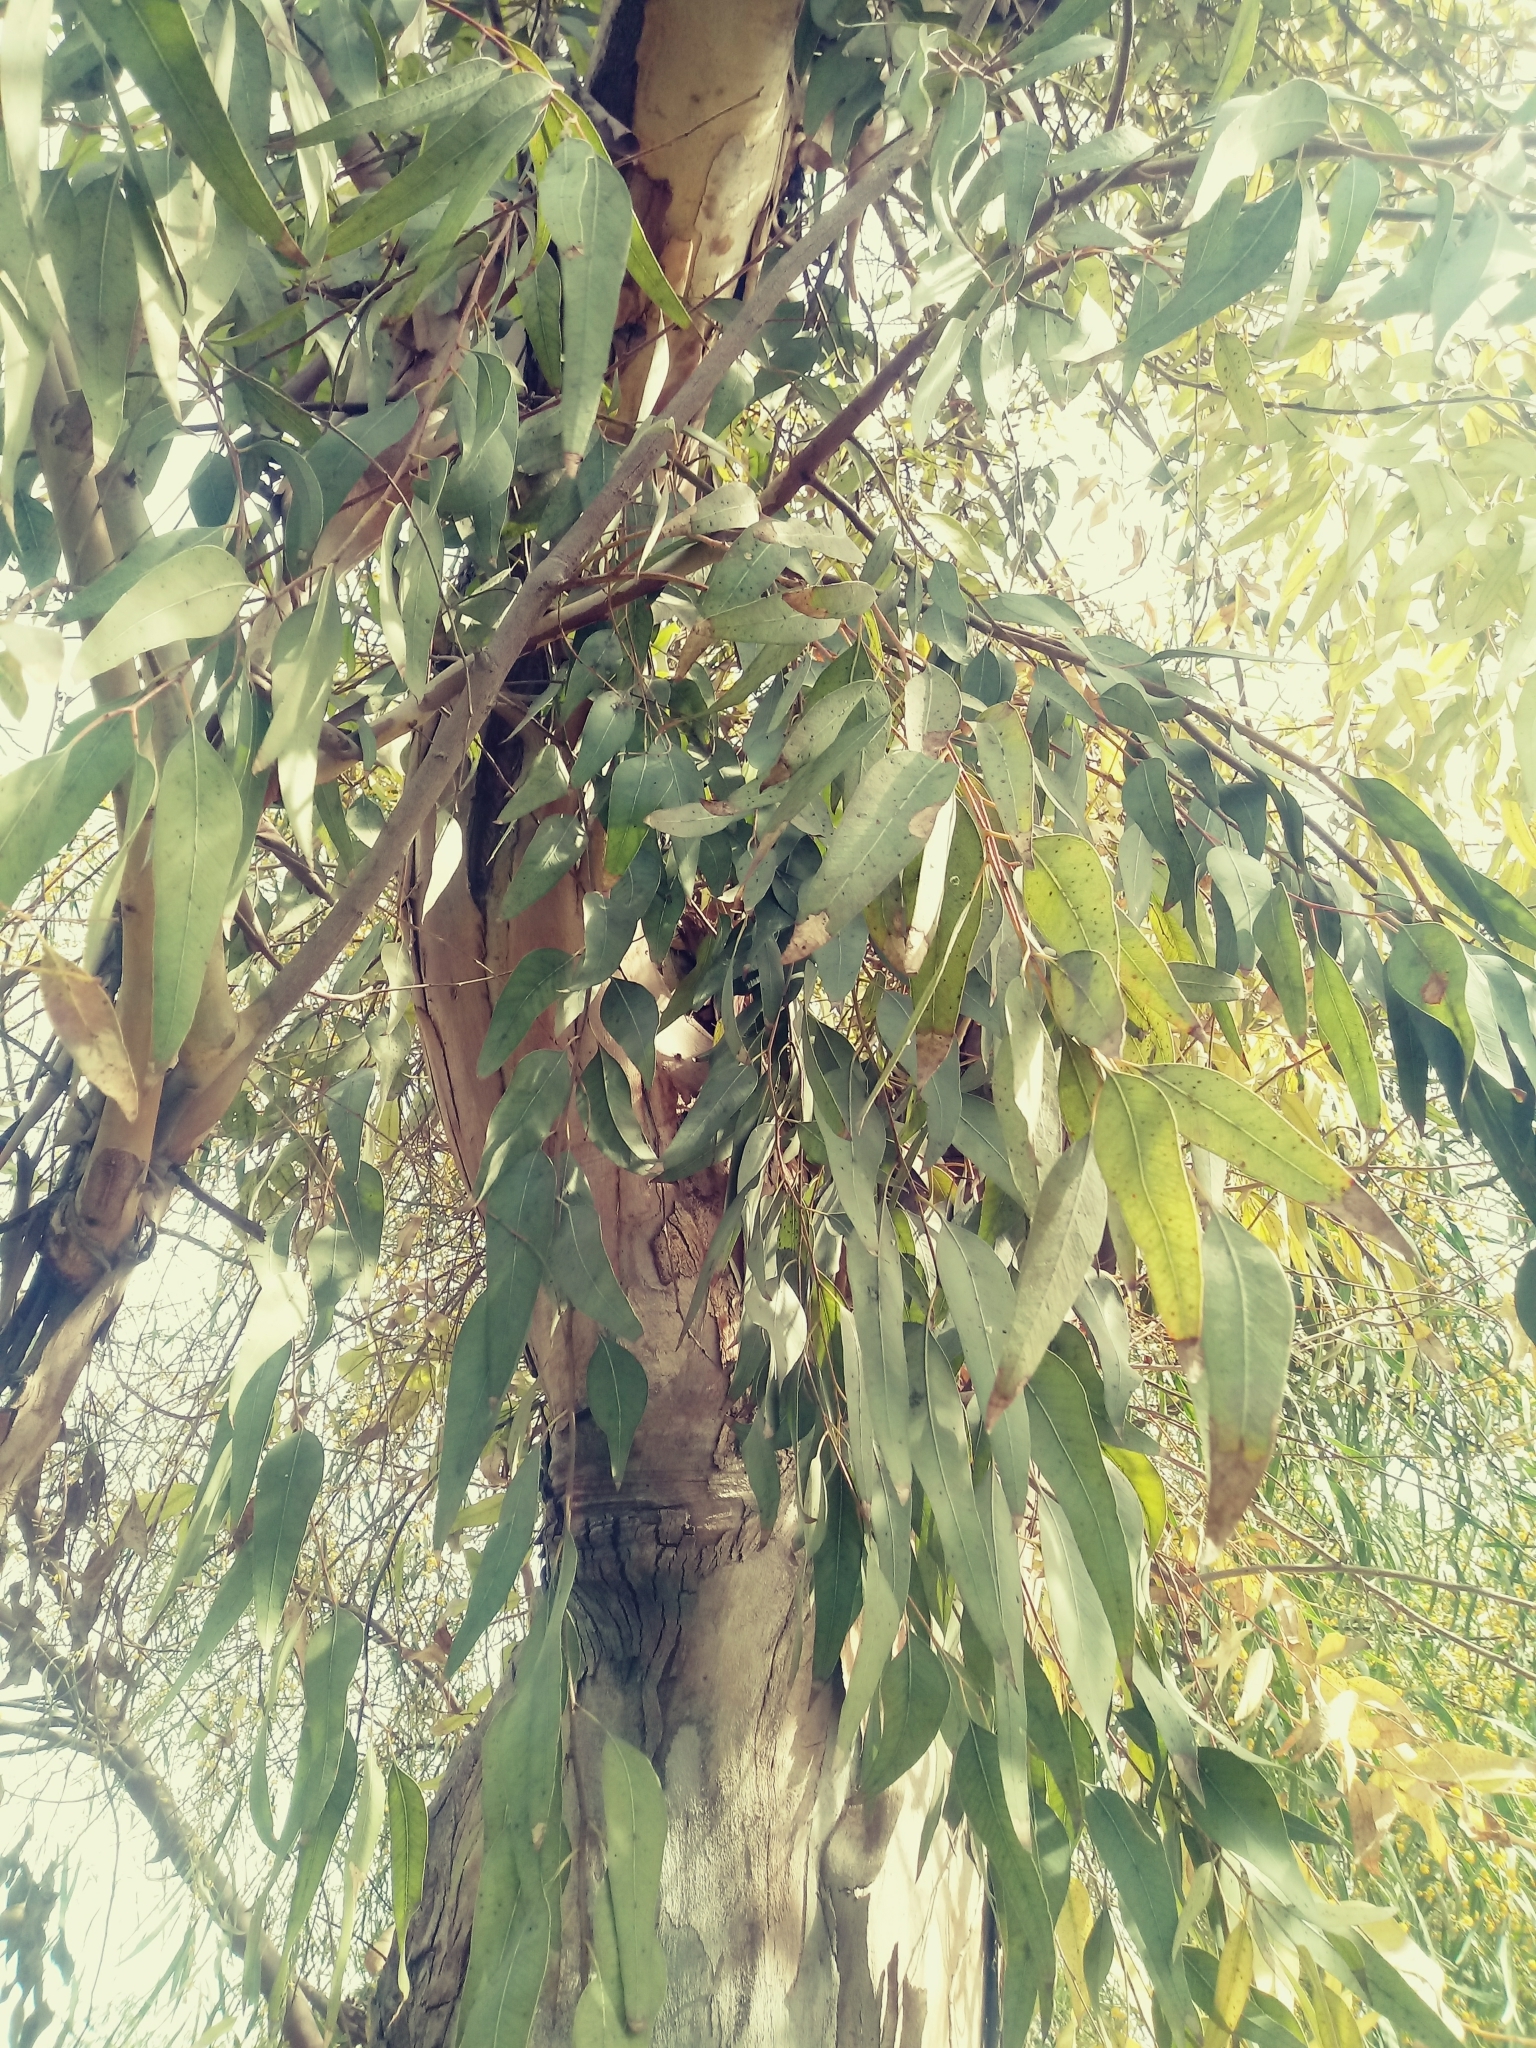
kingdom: Plantae
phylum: Tracheophyta
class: Magnoliopsida
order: Myrtales
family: Myrtaceae
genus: Eucalyptus
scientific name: Eucalyptus camaldulensis
